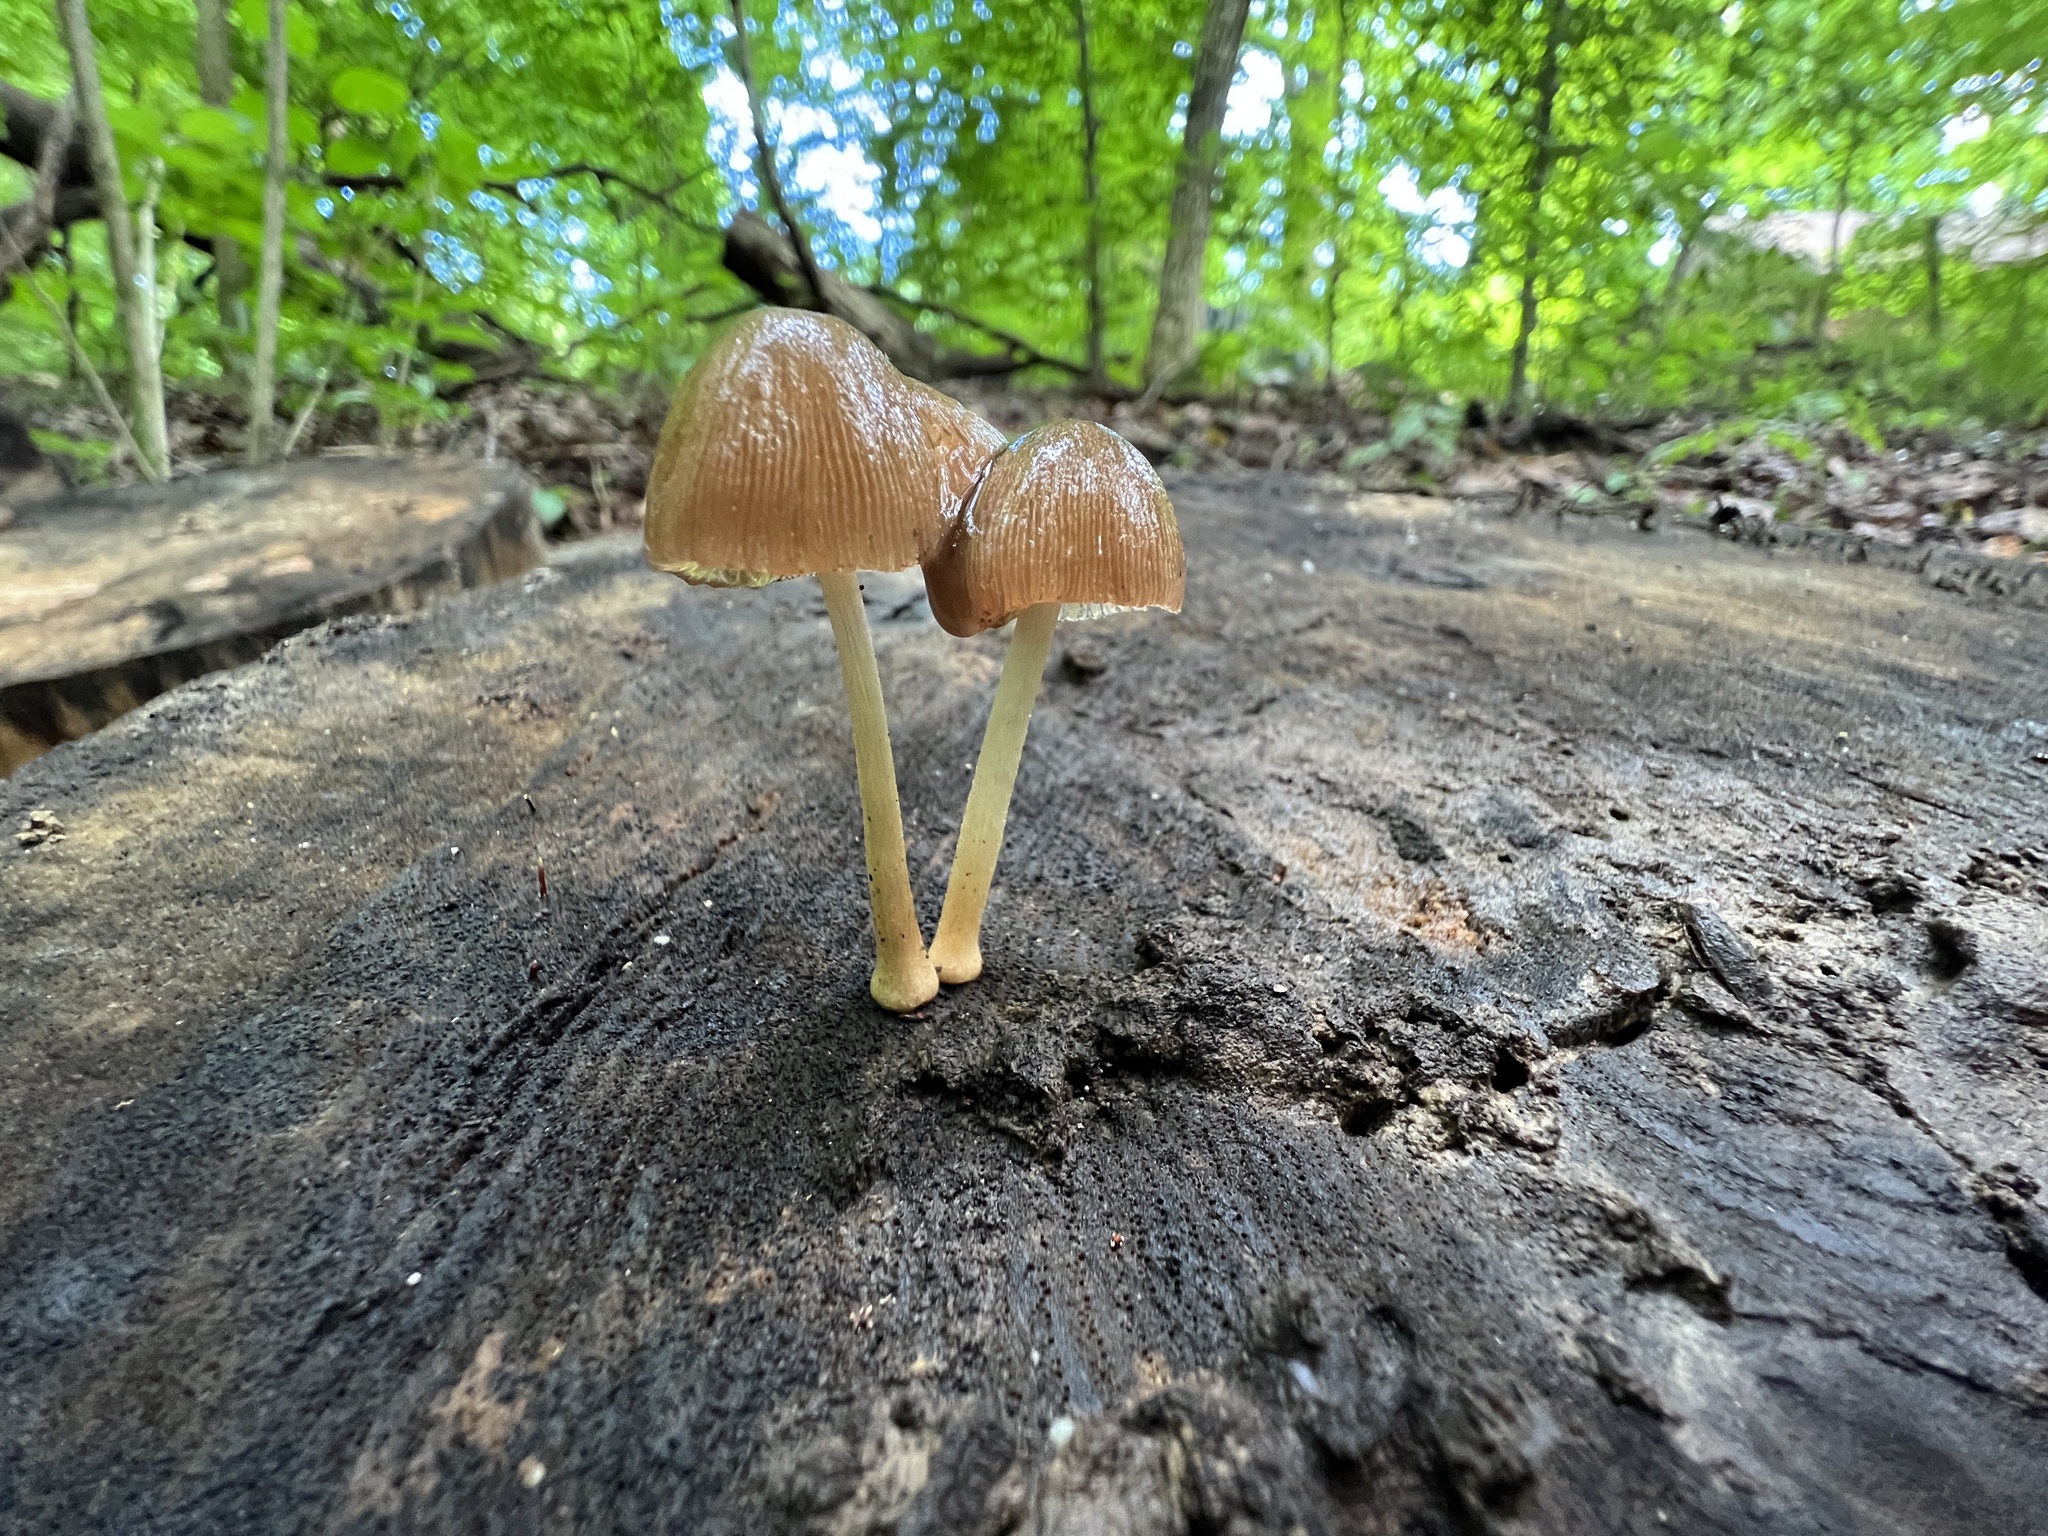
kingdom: Fungi
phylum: Basidiomycota
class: Agaricomycetes
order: Agaricales
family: Pluteaceae
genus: Pluteus
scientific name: Pluteus longistriatus
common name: Pleated pluteus
